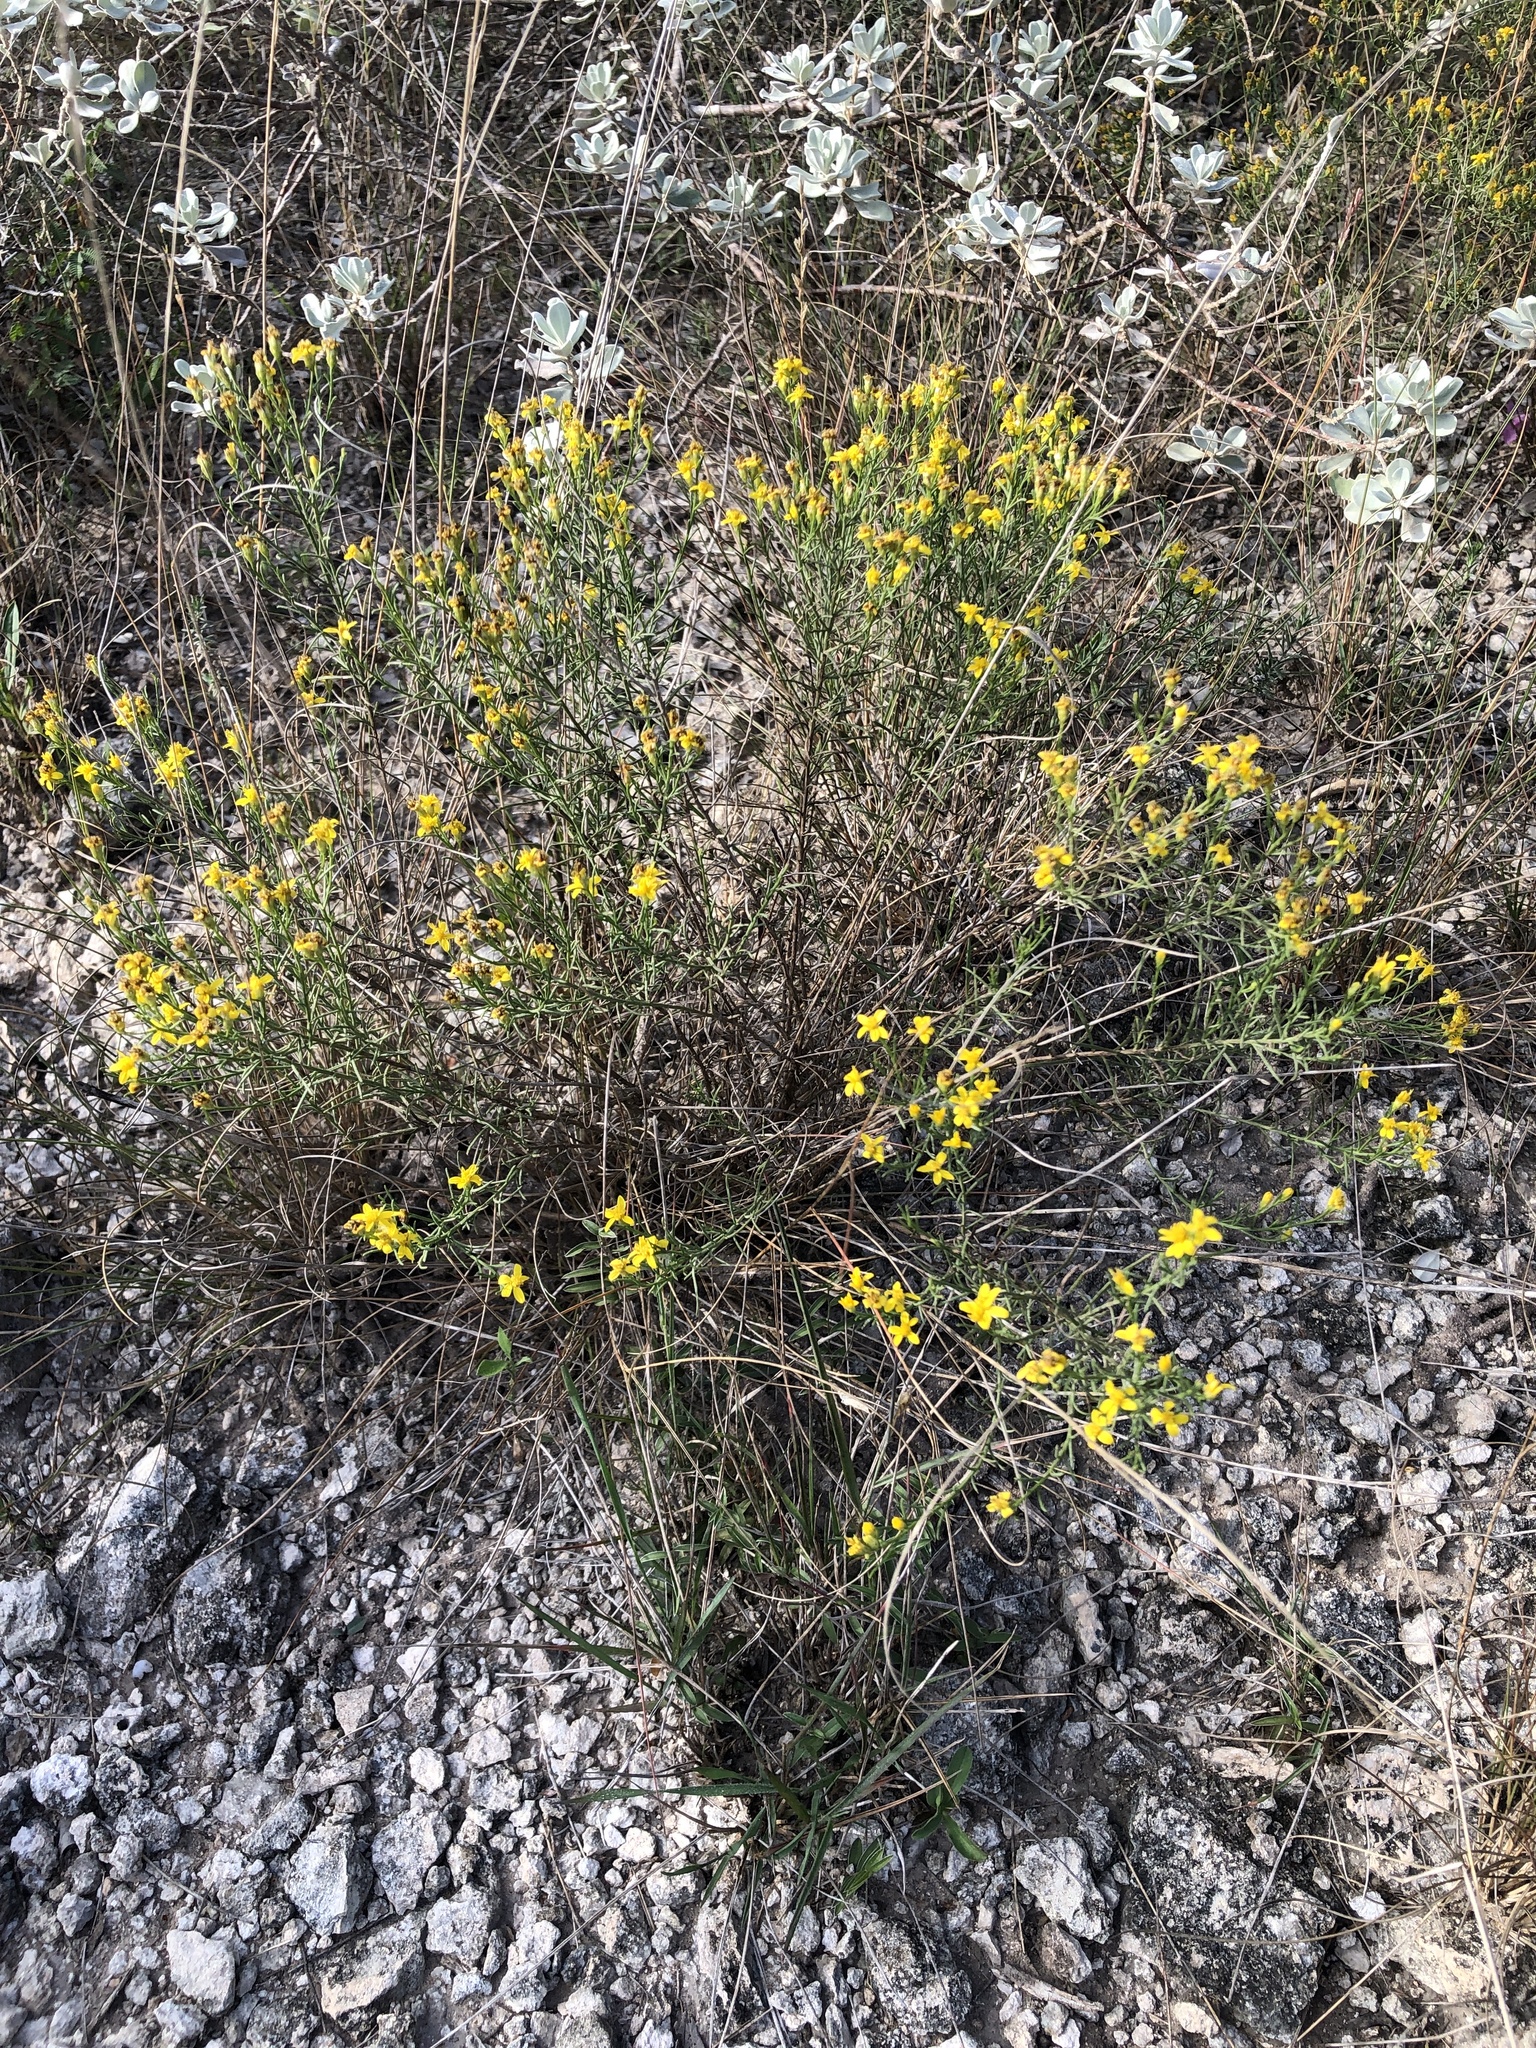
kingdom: Plantae
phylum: Tracheophyta
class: Magnoliopsida
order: Asterales
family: Asteraceae
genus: Gutierrezia
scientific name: Gutierrezia sarothrae
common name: Broom snakeweed
